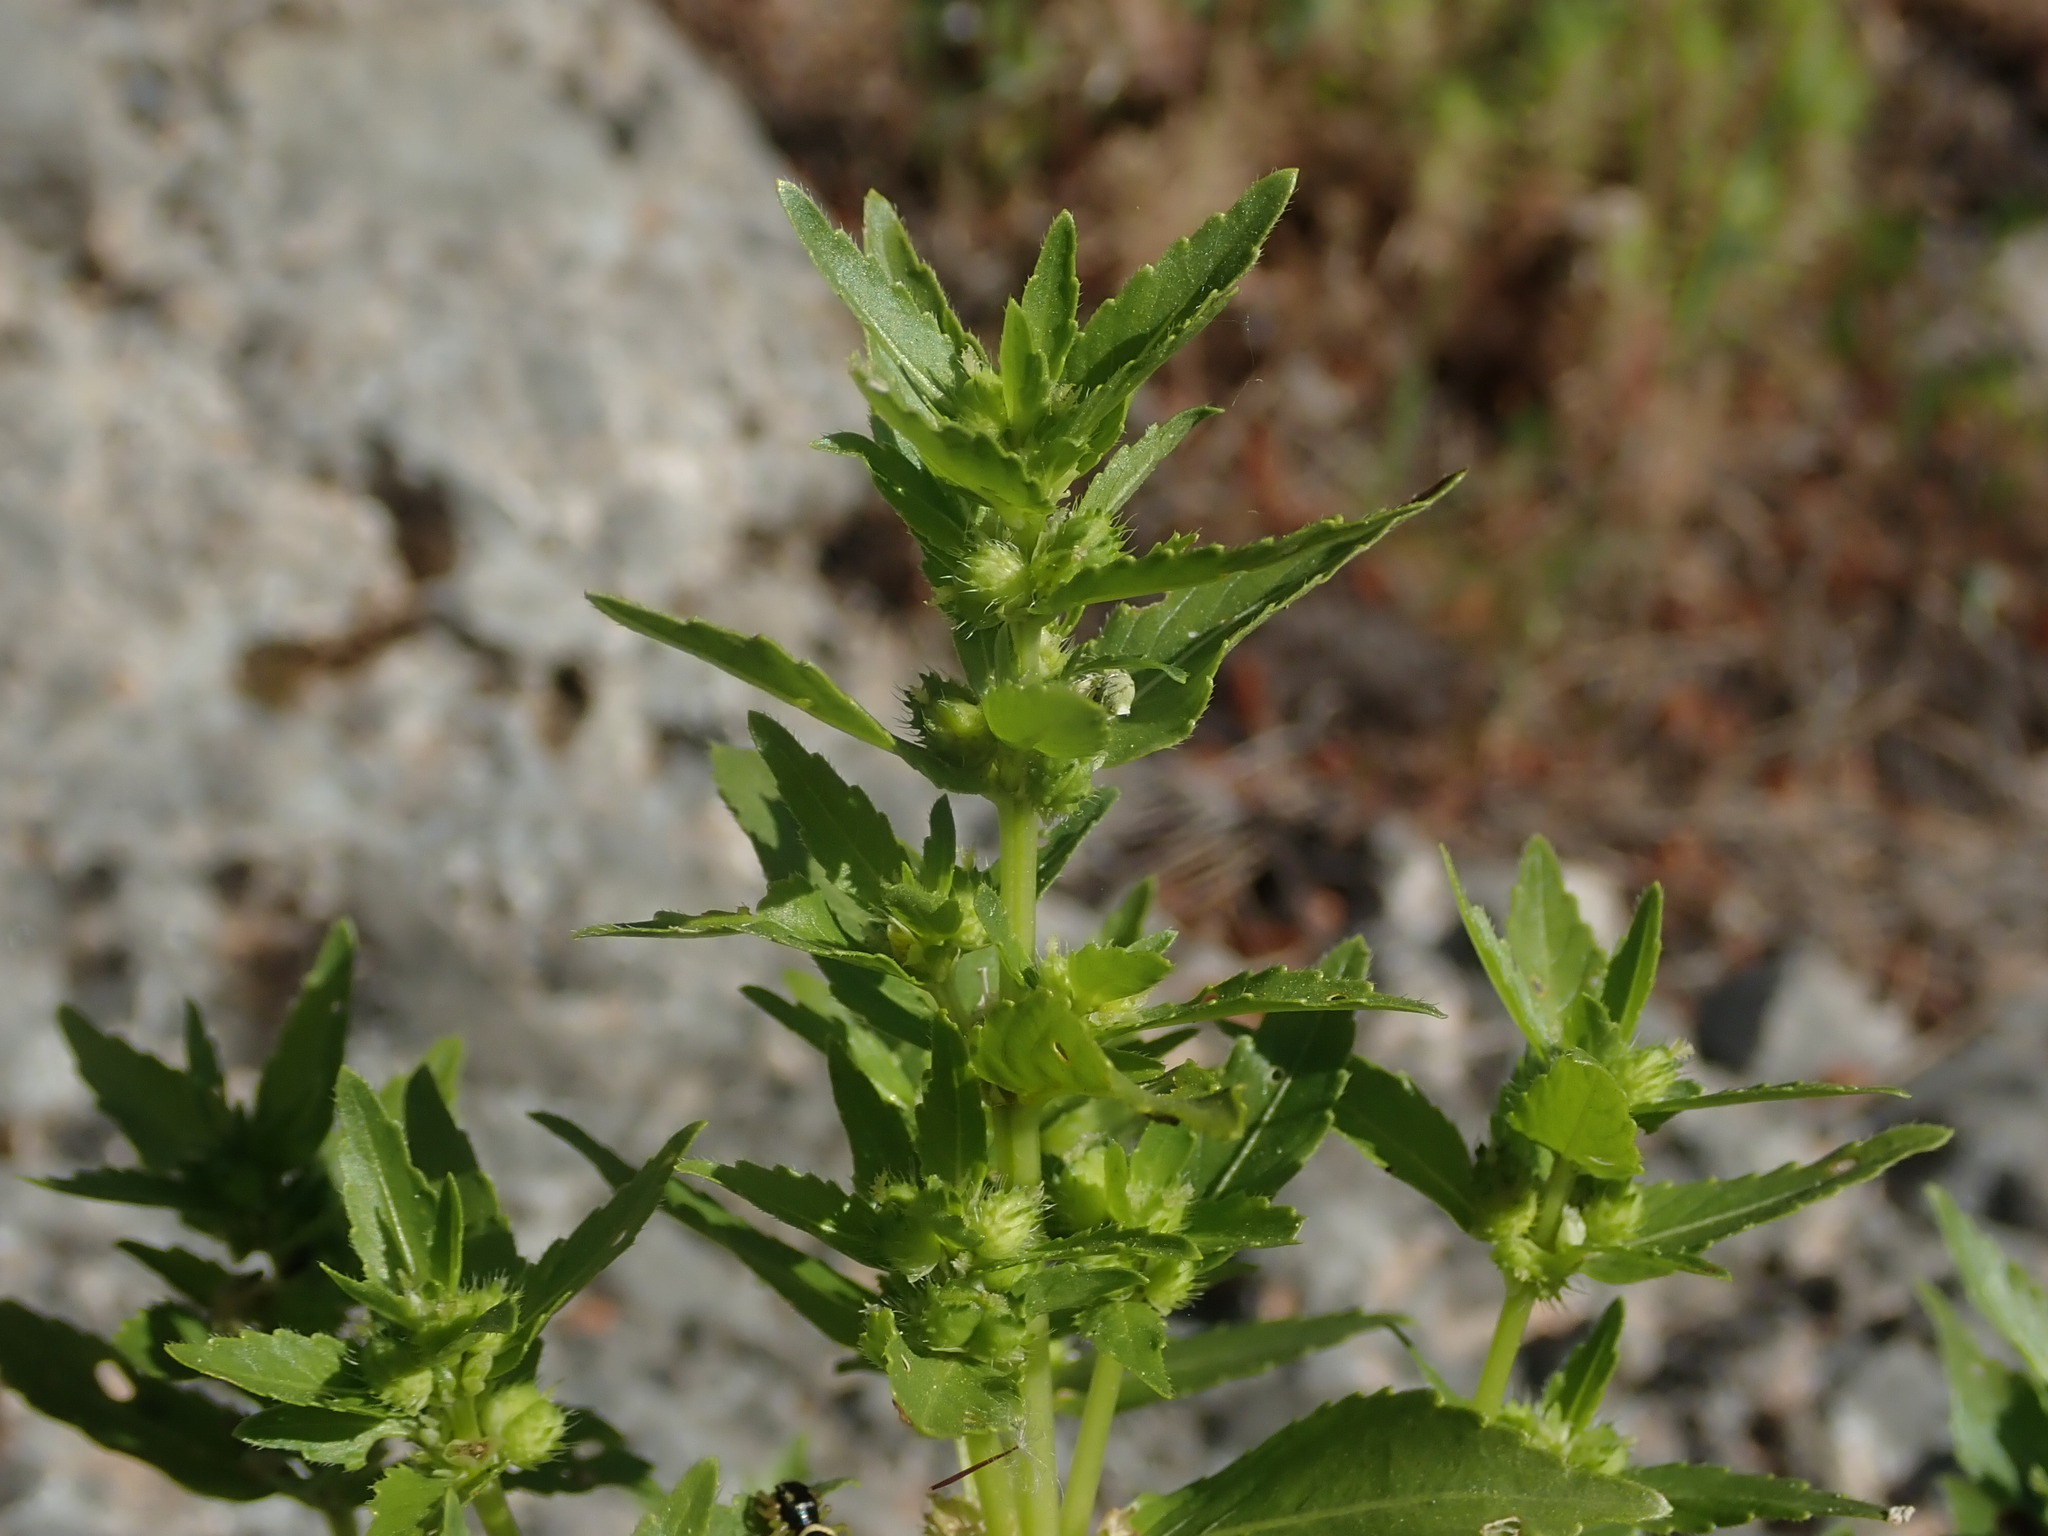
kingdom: Plantae
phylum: Tracheophyta
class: Magnoliopsida
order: Malpighiales
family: Euphorbiaceae
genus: Mercurialis
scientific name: Mercurialis annua
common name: Annual mercury
